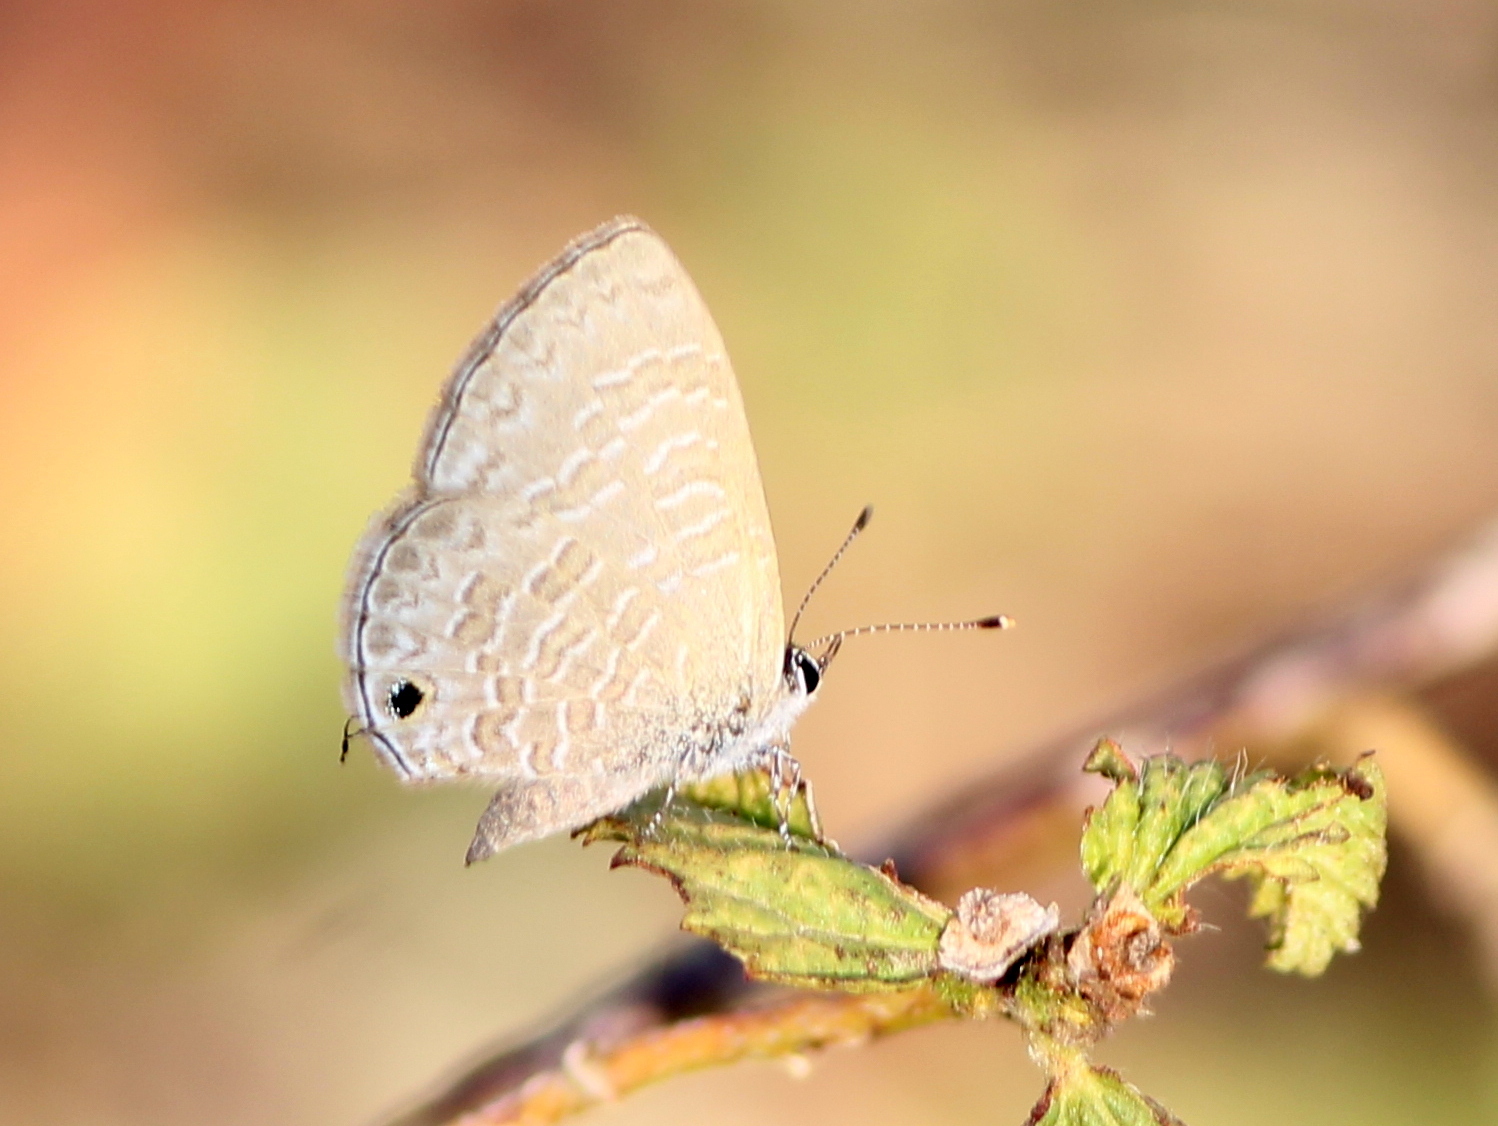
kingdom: Animalia
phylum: Arthropoda
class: Insecta
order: Lepidoptera
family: Lycaenidae
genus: Prosotas
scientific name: Prosotas nora
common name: Common line blue
